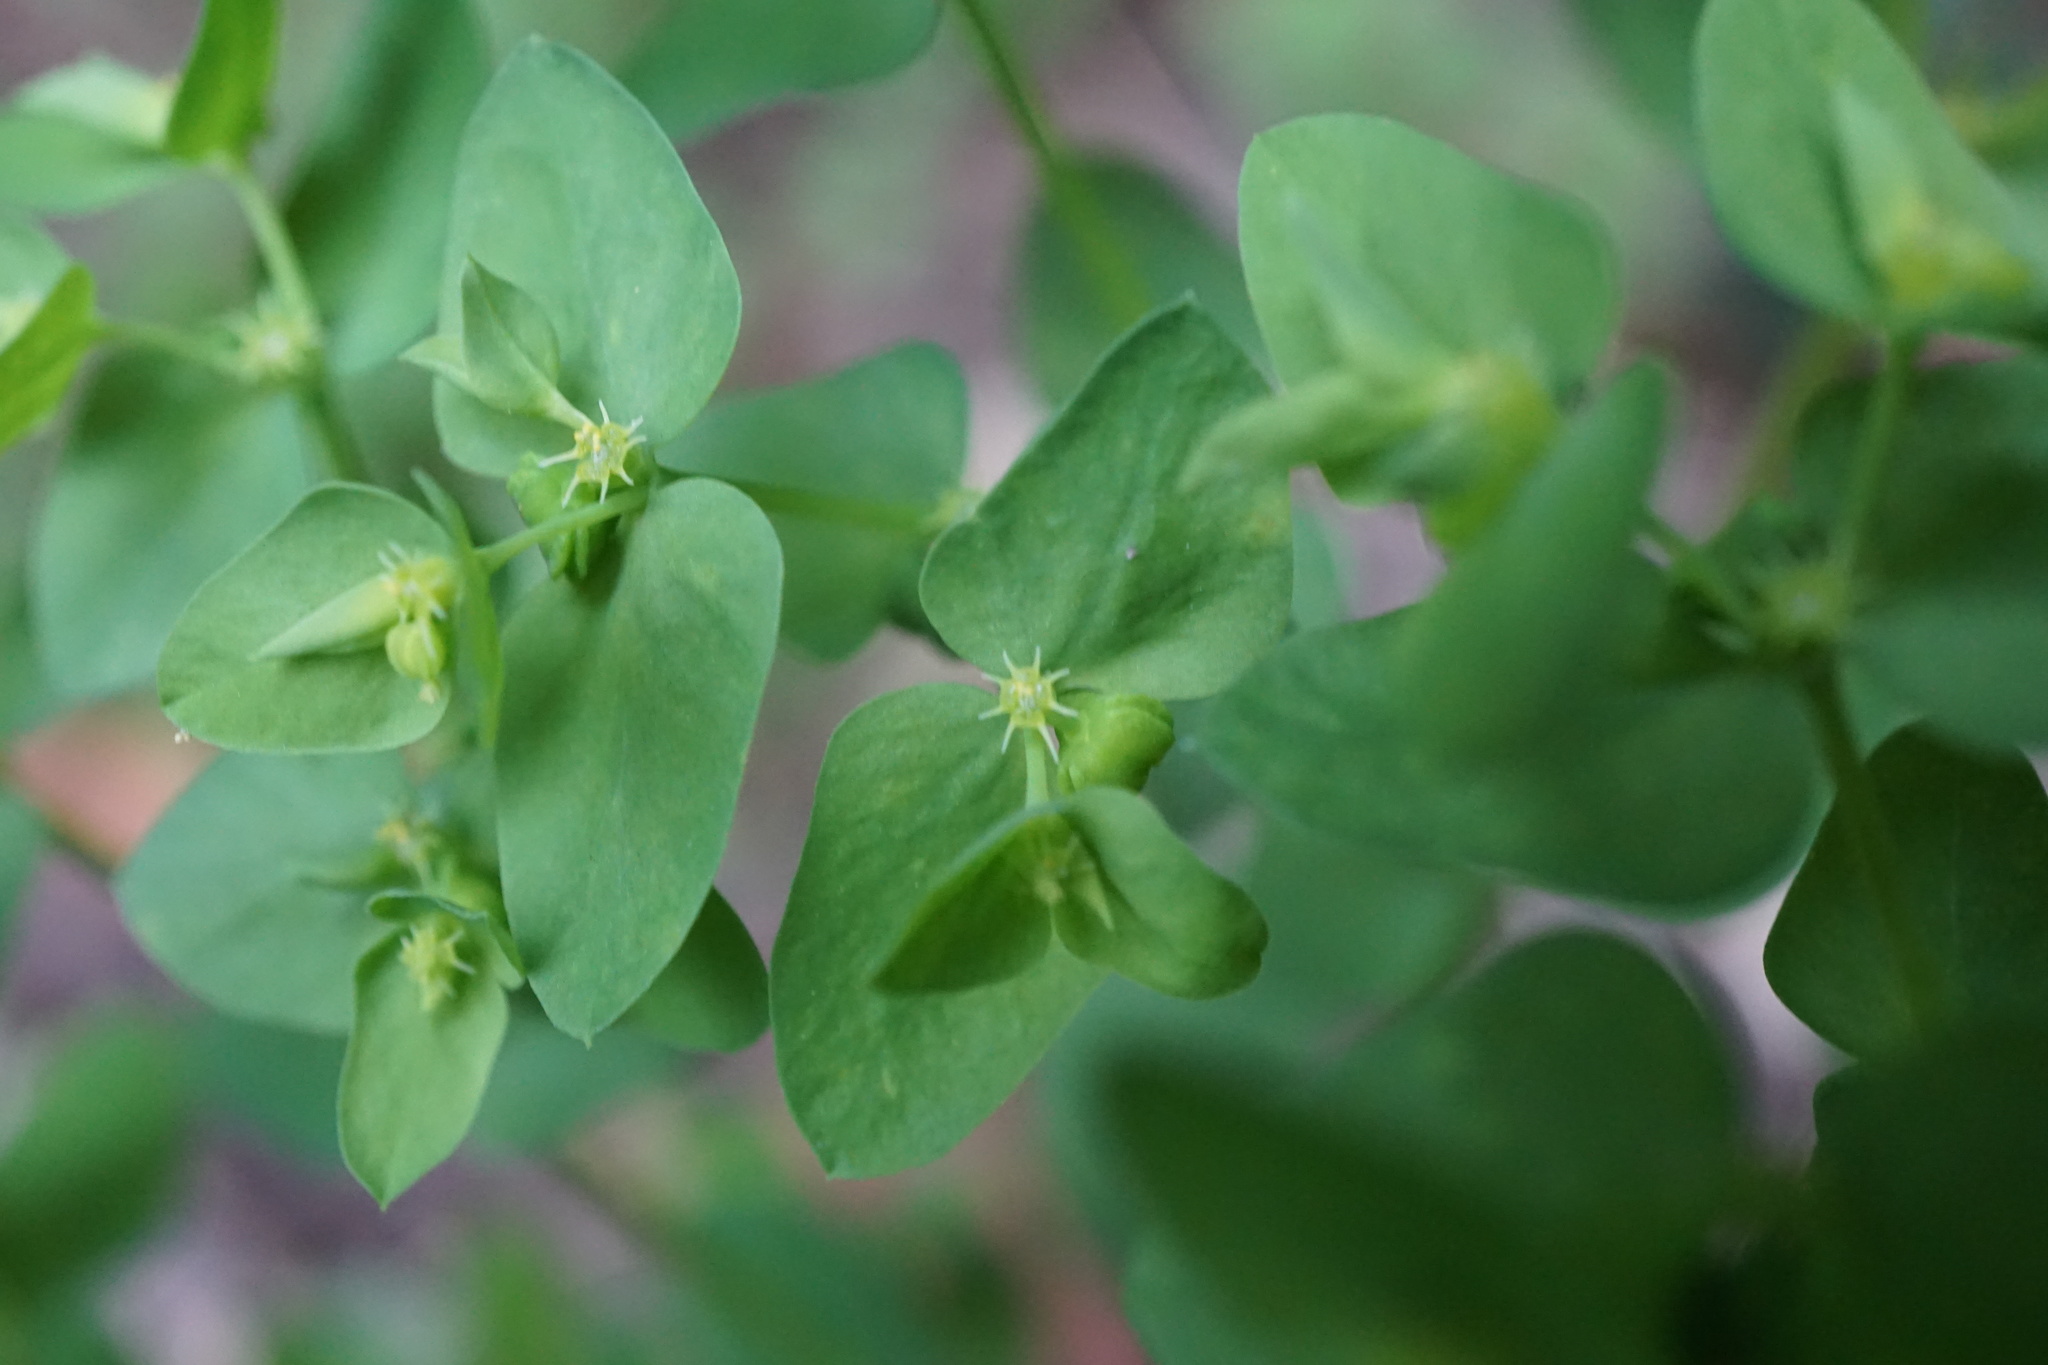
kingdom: Plantae
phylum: Tracheophyta
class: Magnoliopsida
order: Malpighiales
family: Euphorbiaceae
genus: Euphorbia
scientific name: Euphorbia peplus
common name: Petty spurge
